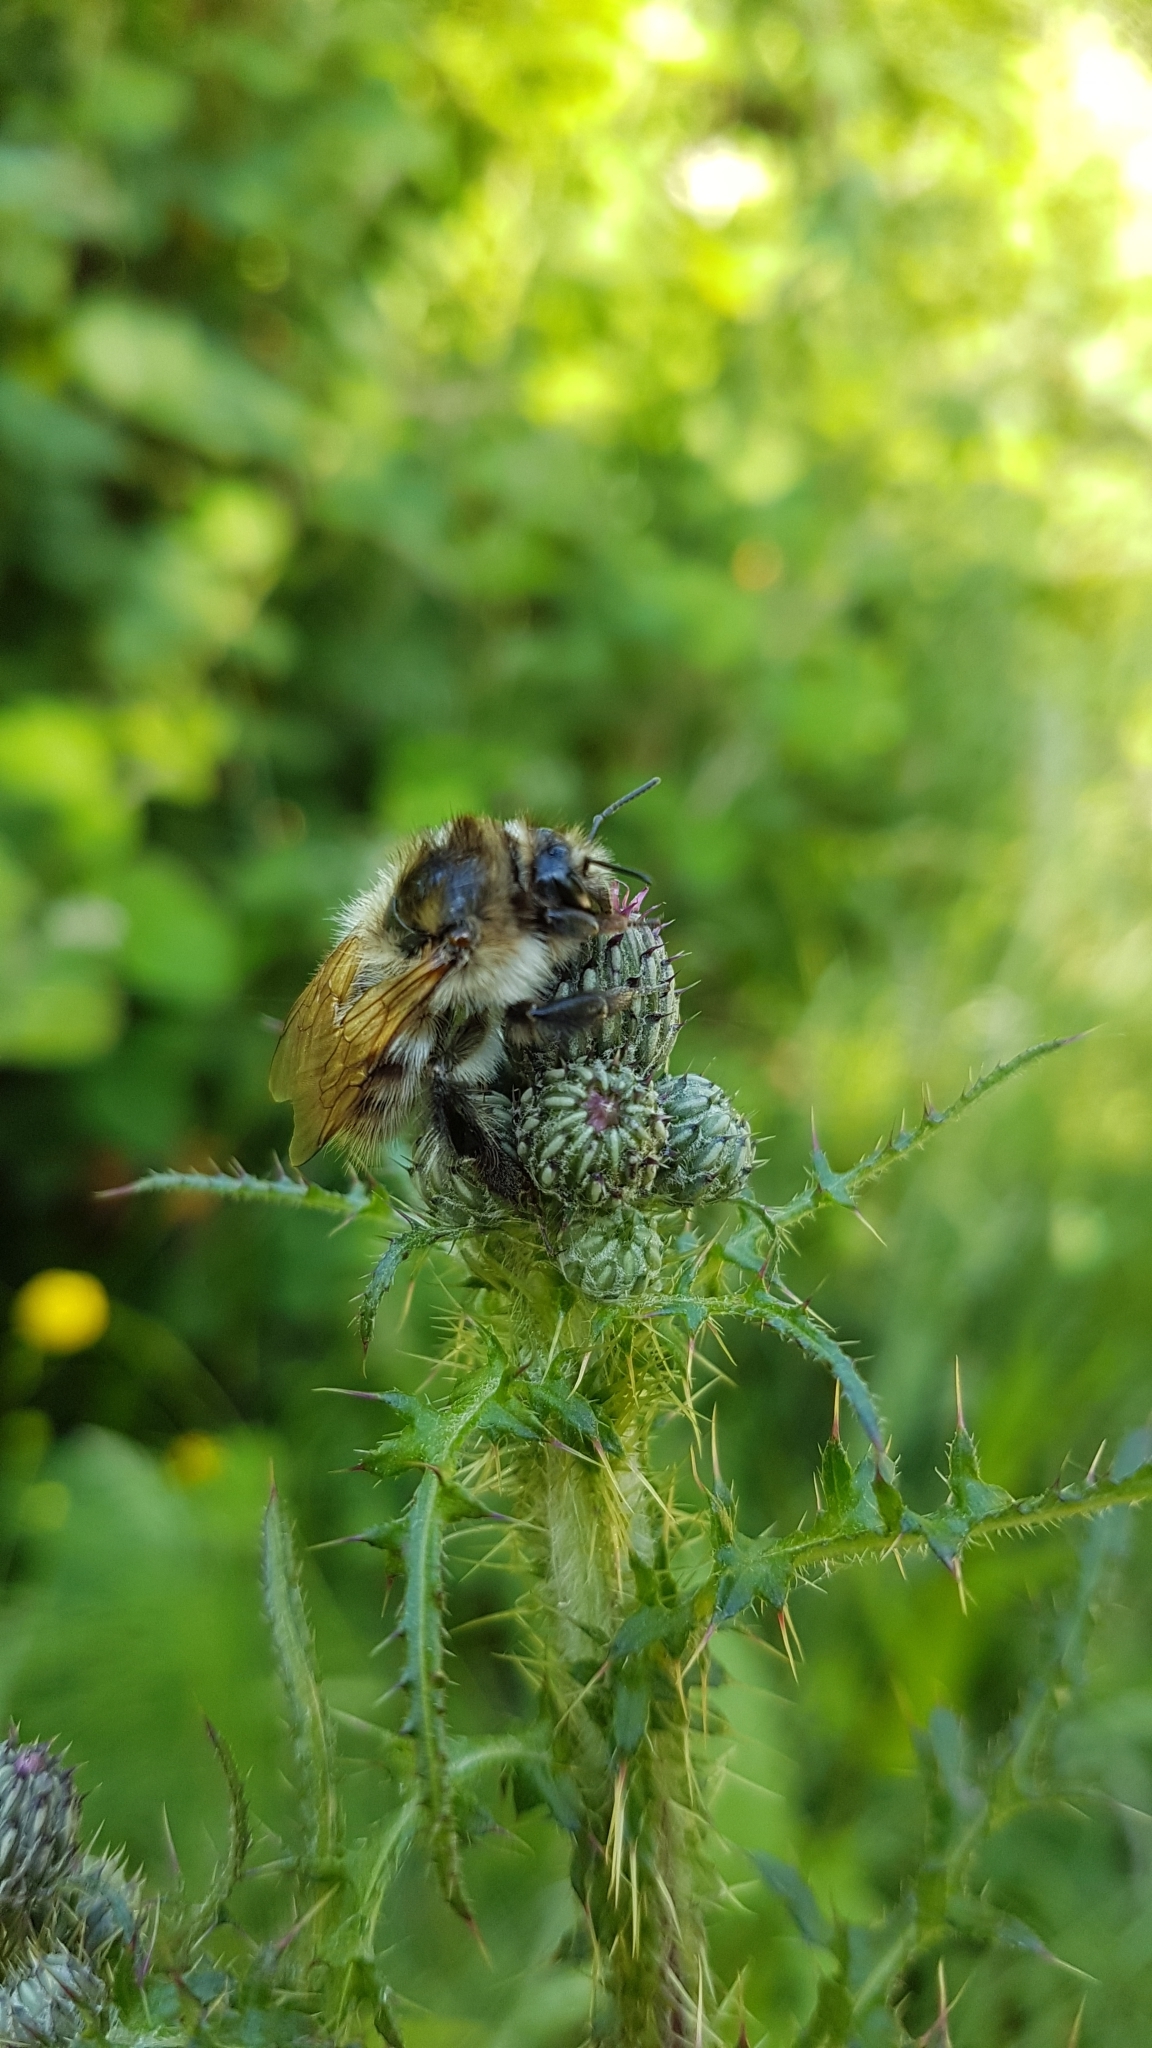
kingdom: Animalia
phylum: Arthropoda
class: Insecta
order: Hymenoptera
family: Apidae
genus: Bombus
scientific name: Bombus pascuorum
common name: Common carder bee
